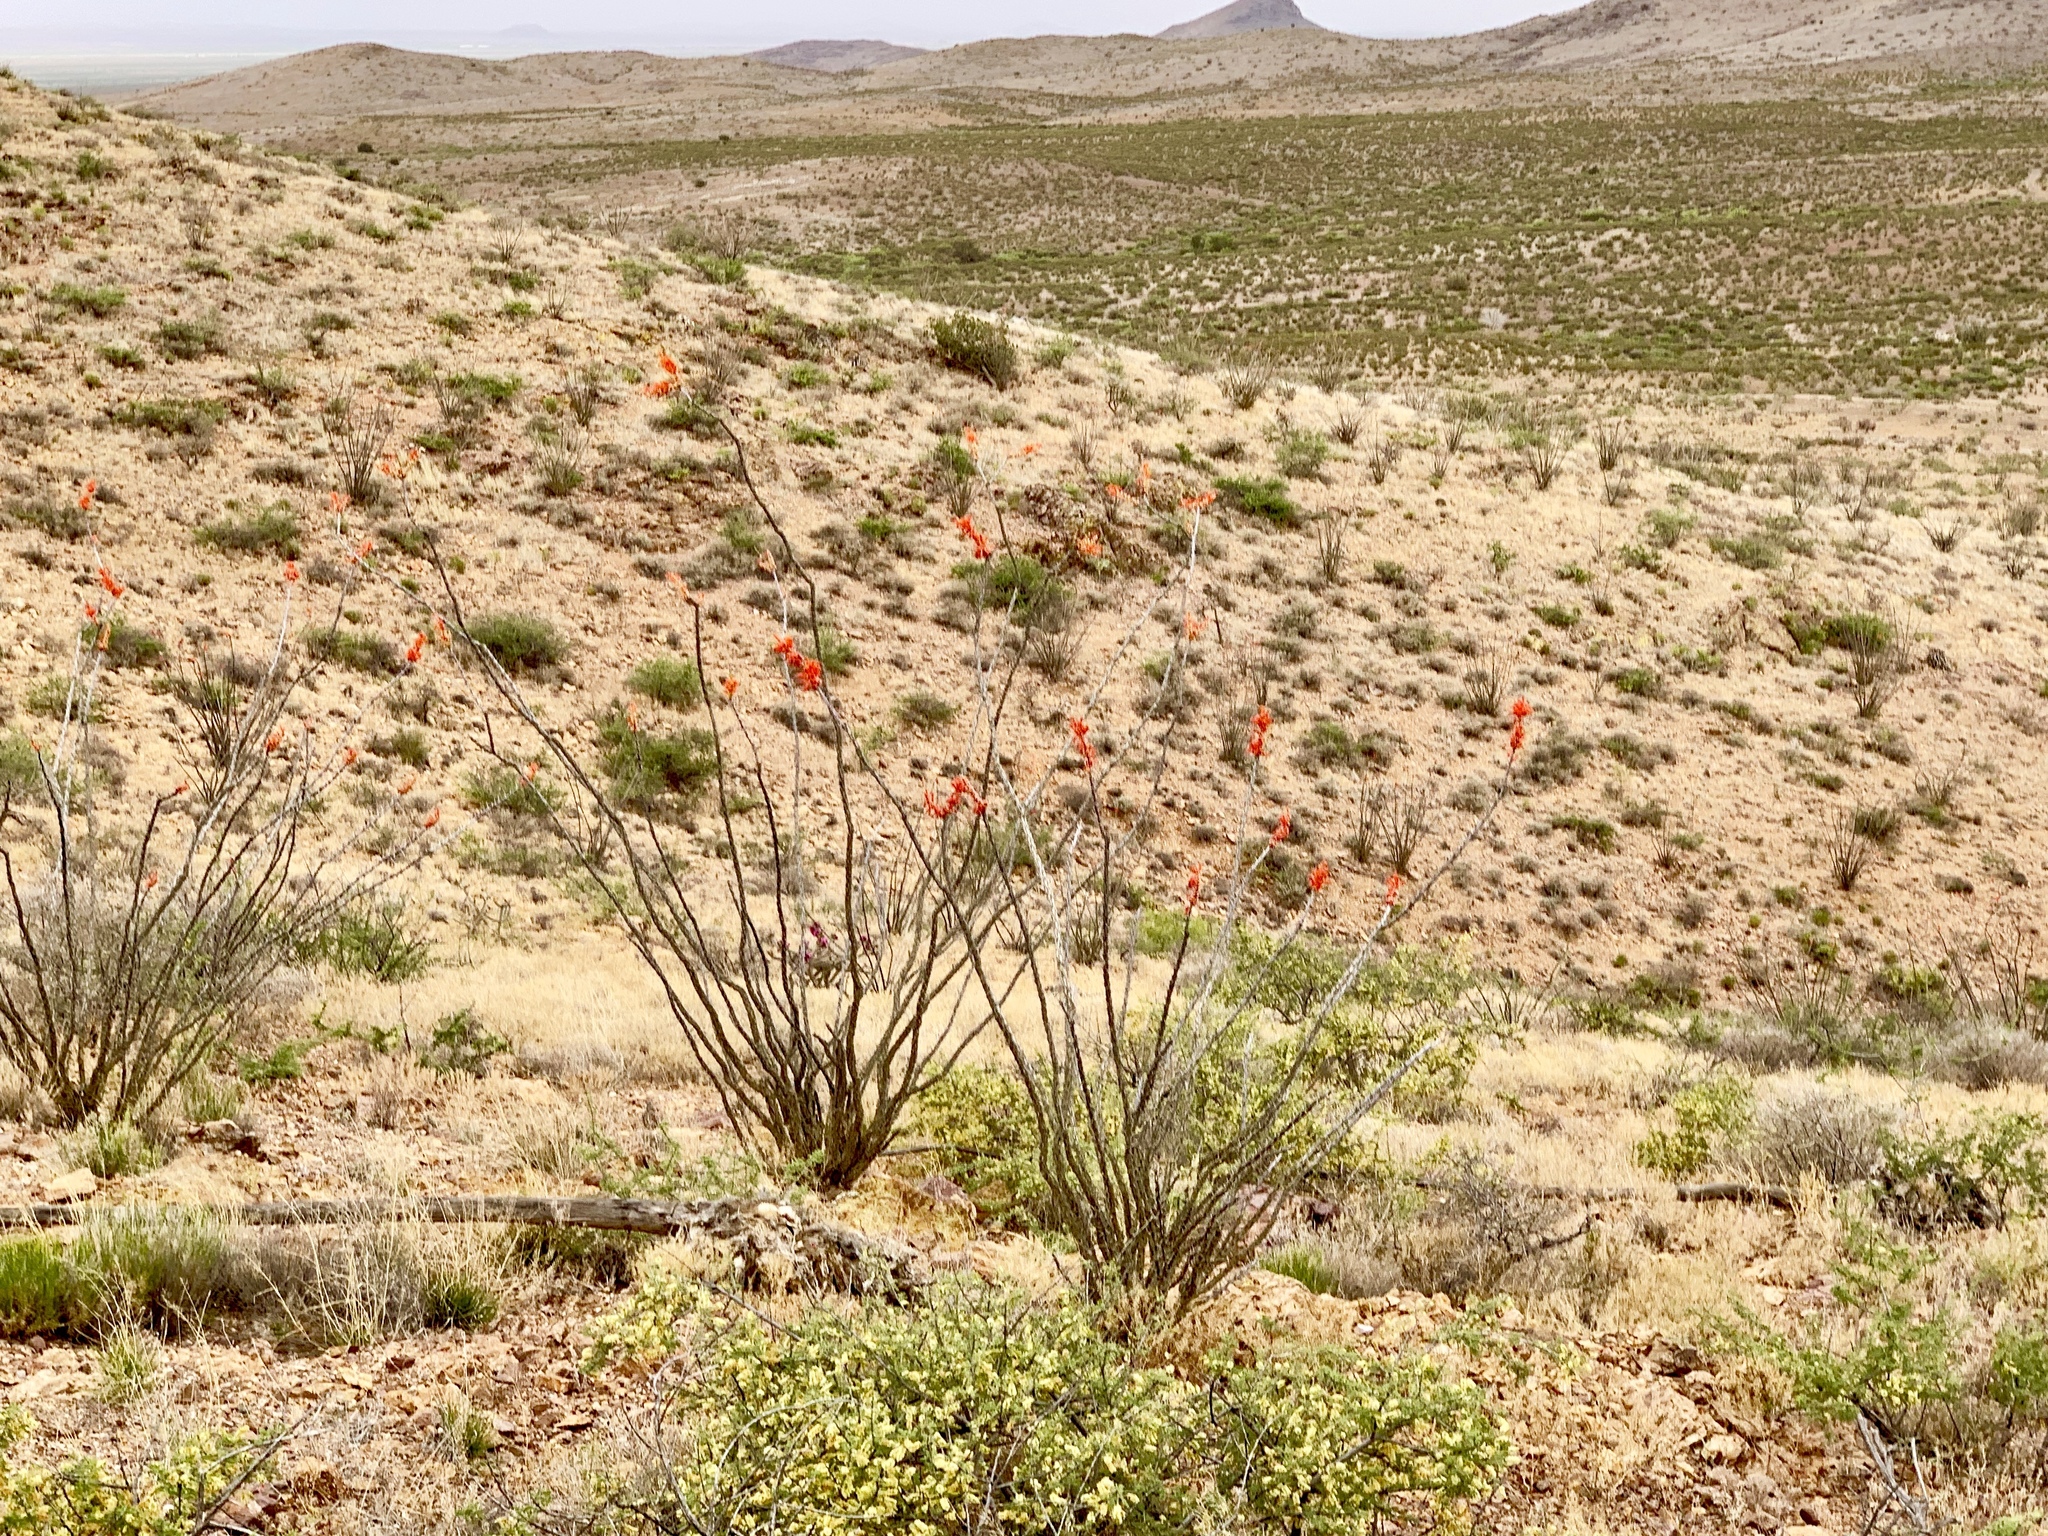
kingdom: Plantae
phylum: Tracheophyta
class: Magnoliopsida
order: Ericales
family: Fouquieriaceae
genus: Fouquieria
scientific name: Fouquieria splendens
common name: Vine-cactus
